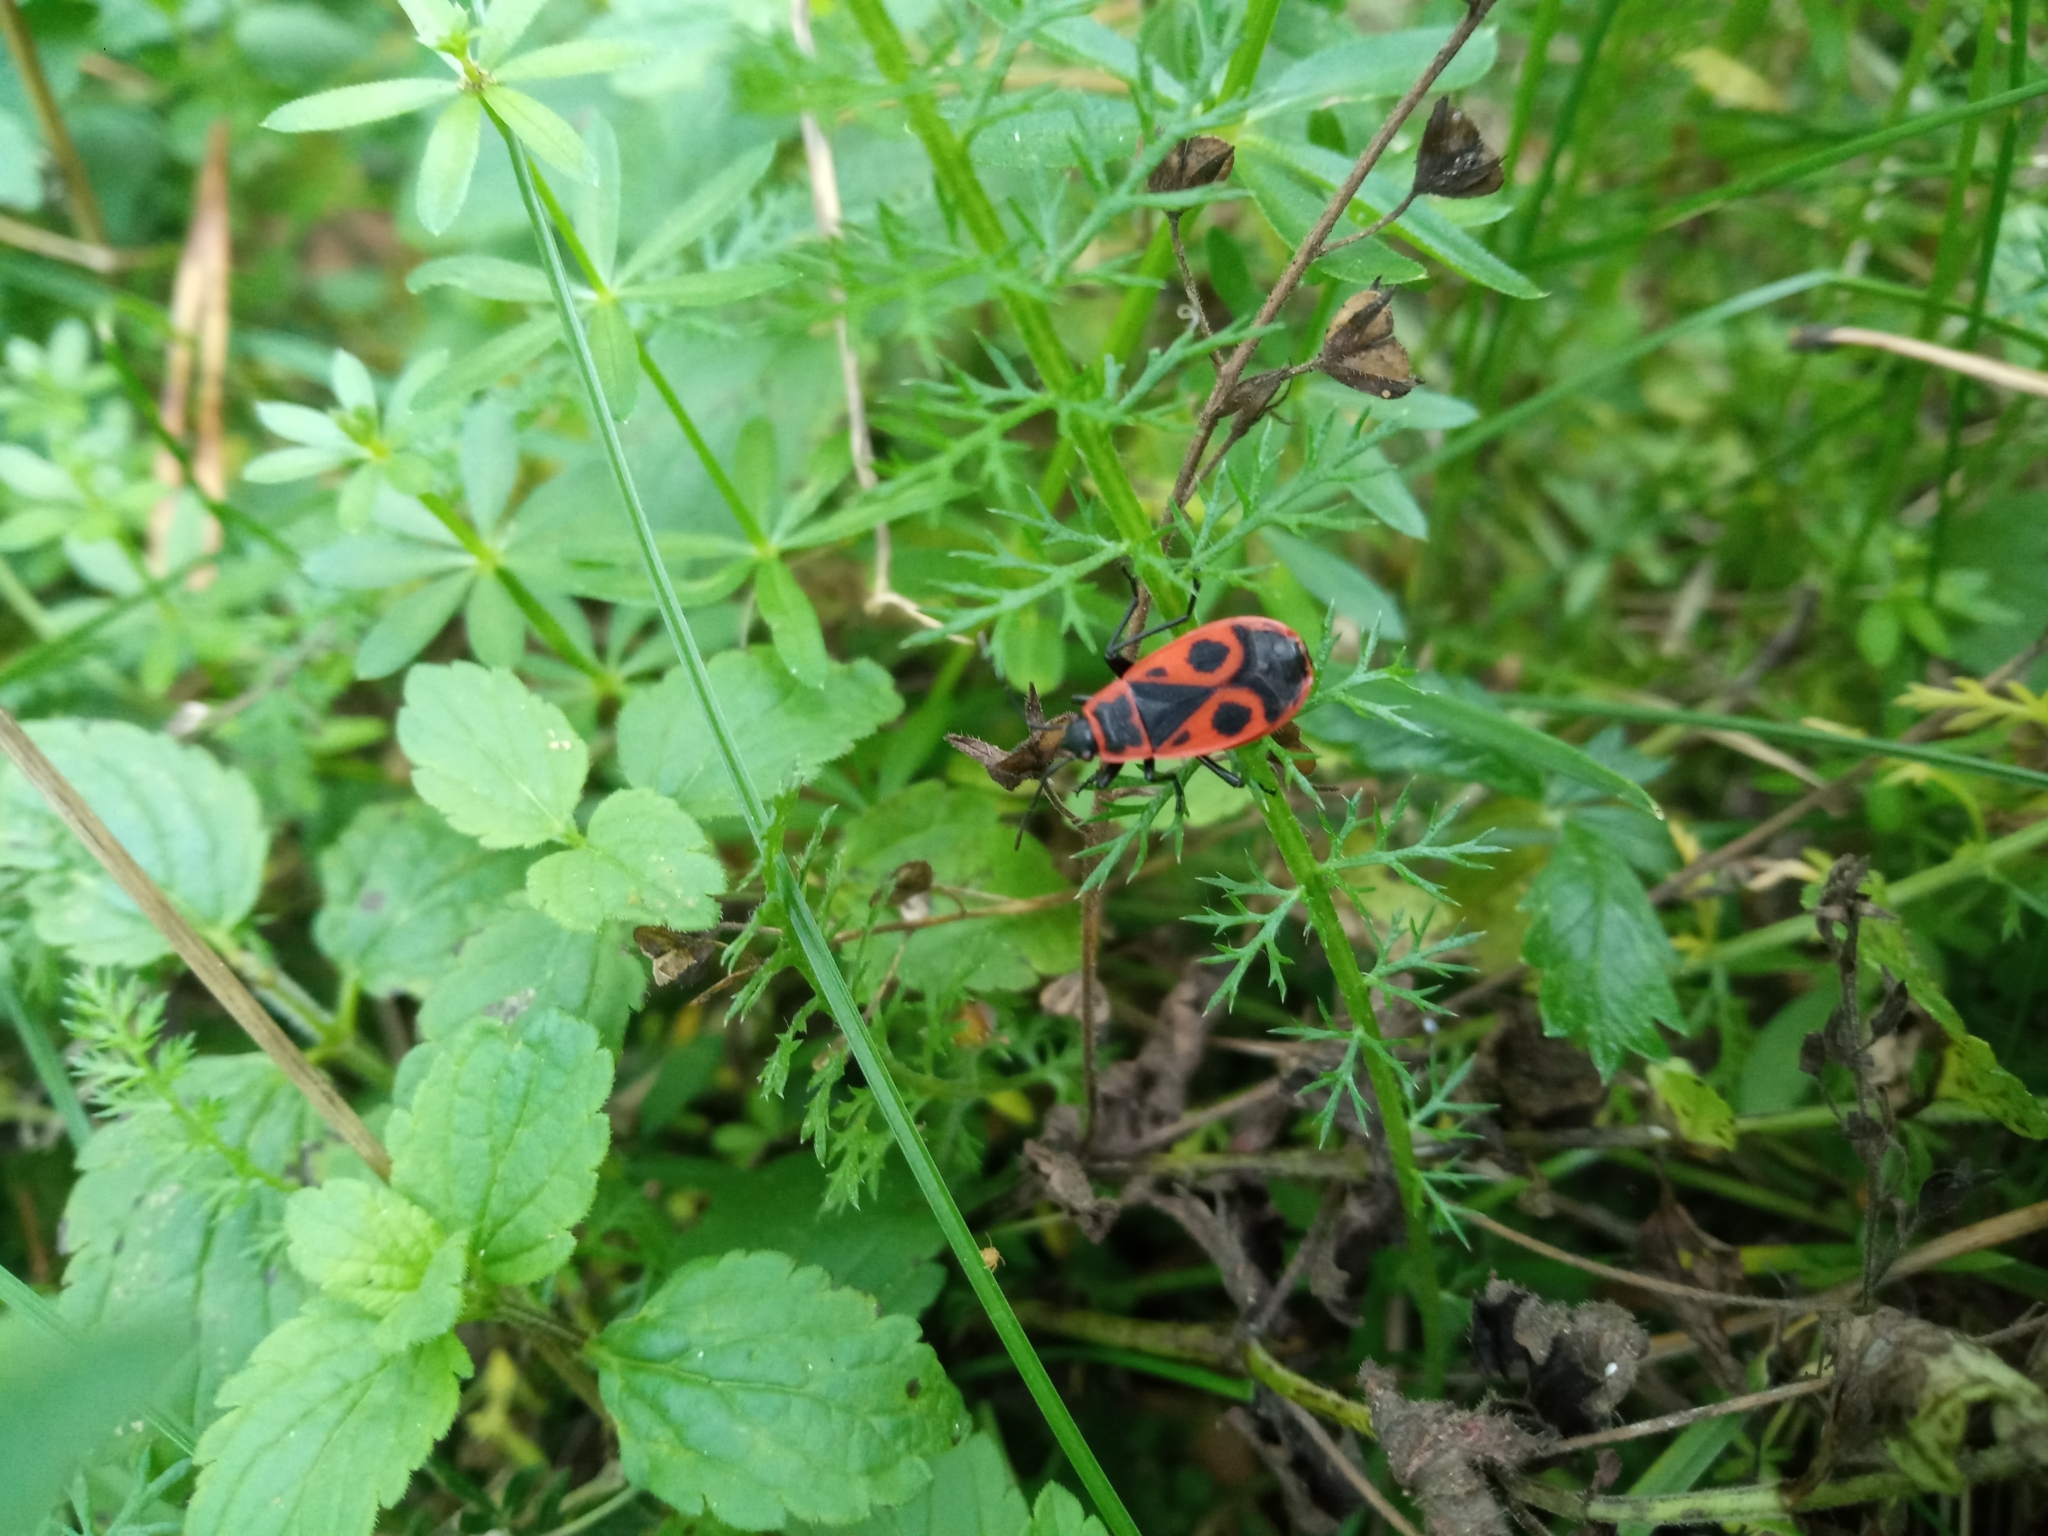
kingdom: Animalia
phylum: Arthropoda
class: Insecta
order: Hemiptera
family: Pyrrhocoridae
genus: Pyrrhocoris
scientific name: Pyrrhocoris apterus
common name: Firebug
